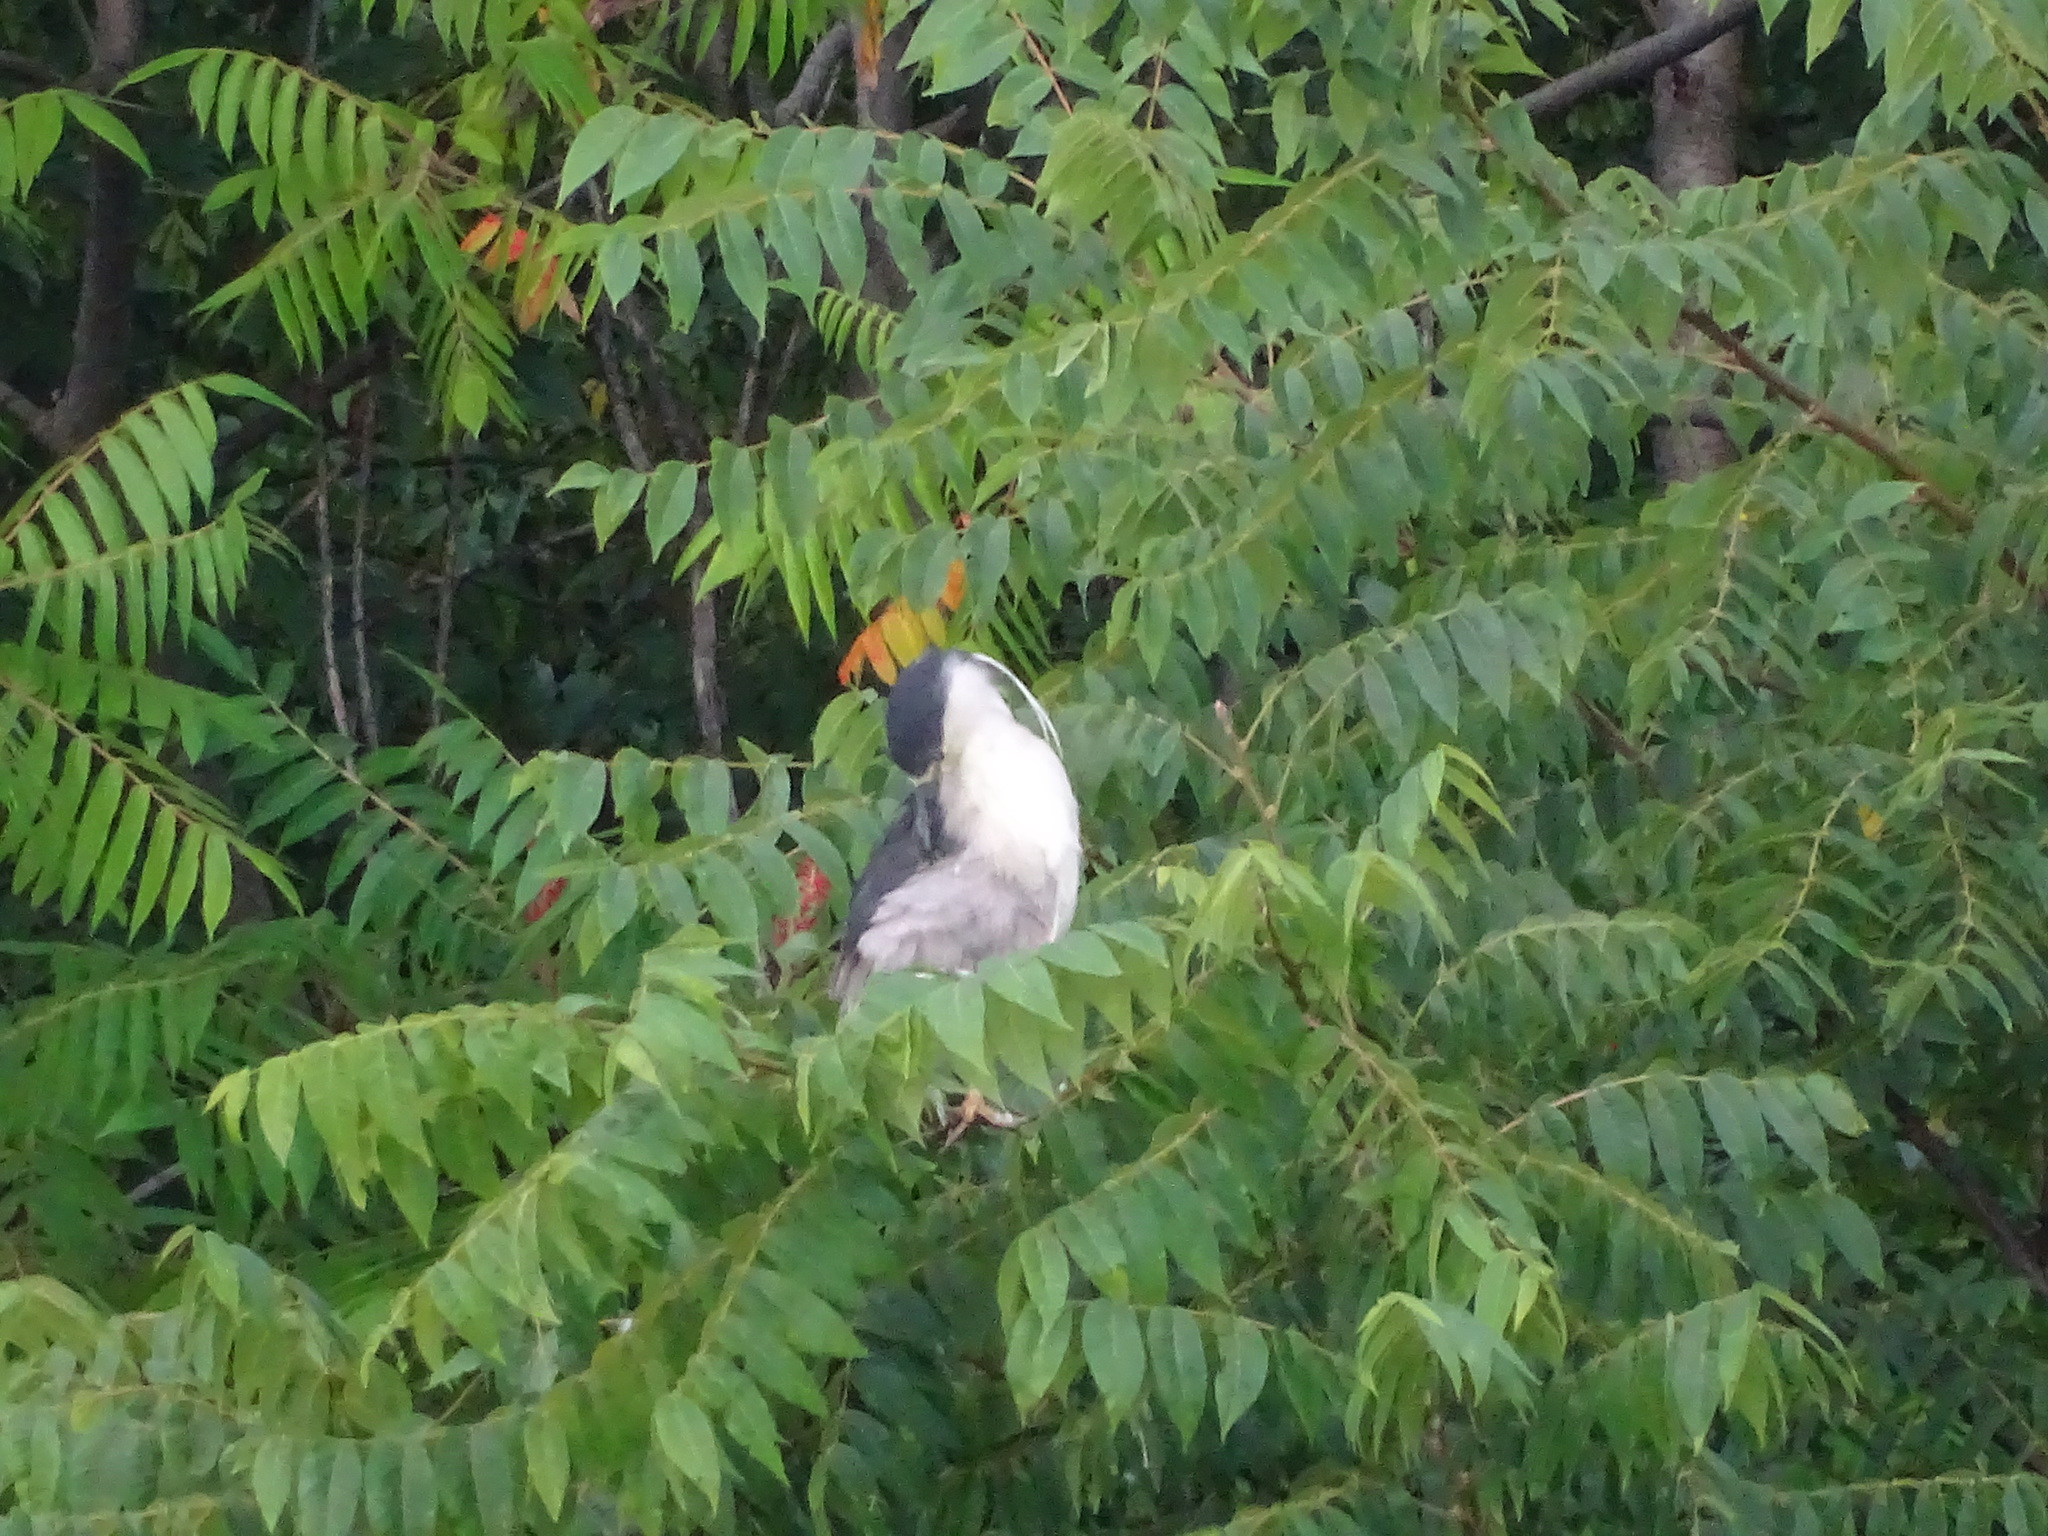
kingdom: Animalia
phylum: Chordata
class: Aves
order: Pelecaniformes
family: Ardeidae
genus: Nycticorax
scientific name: Nycticorax nycticorax
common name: Black-crowned night heron
